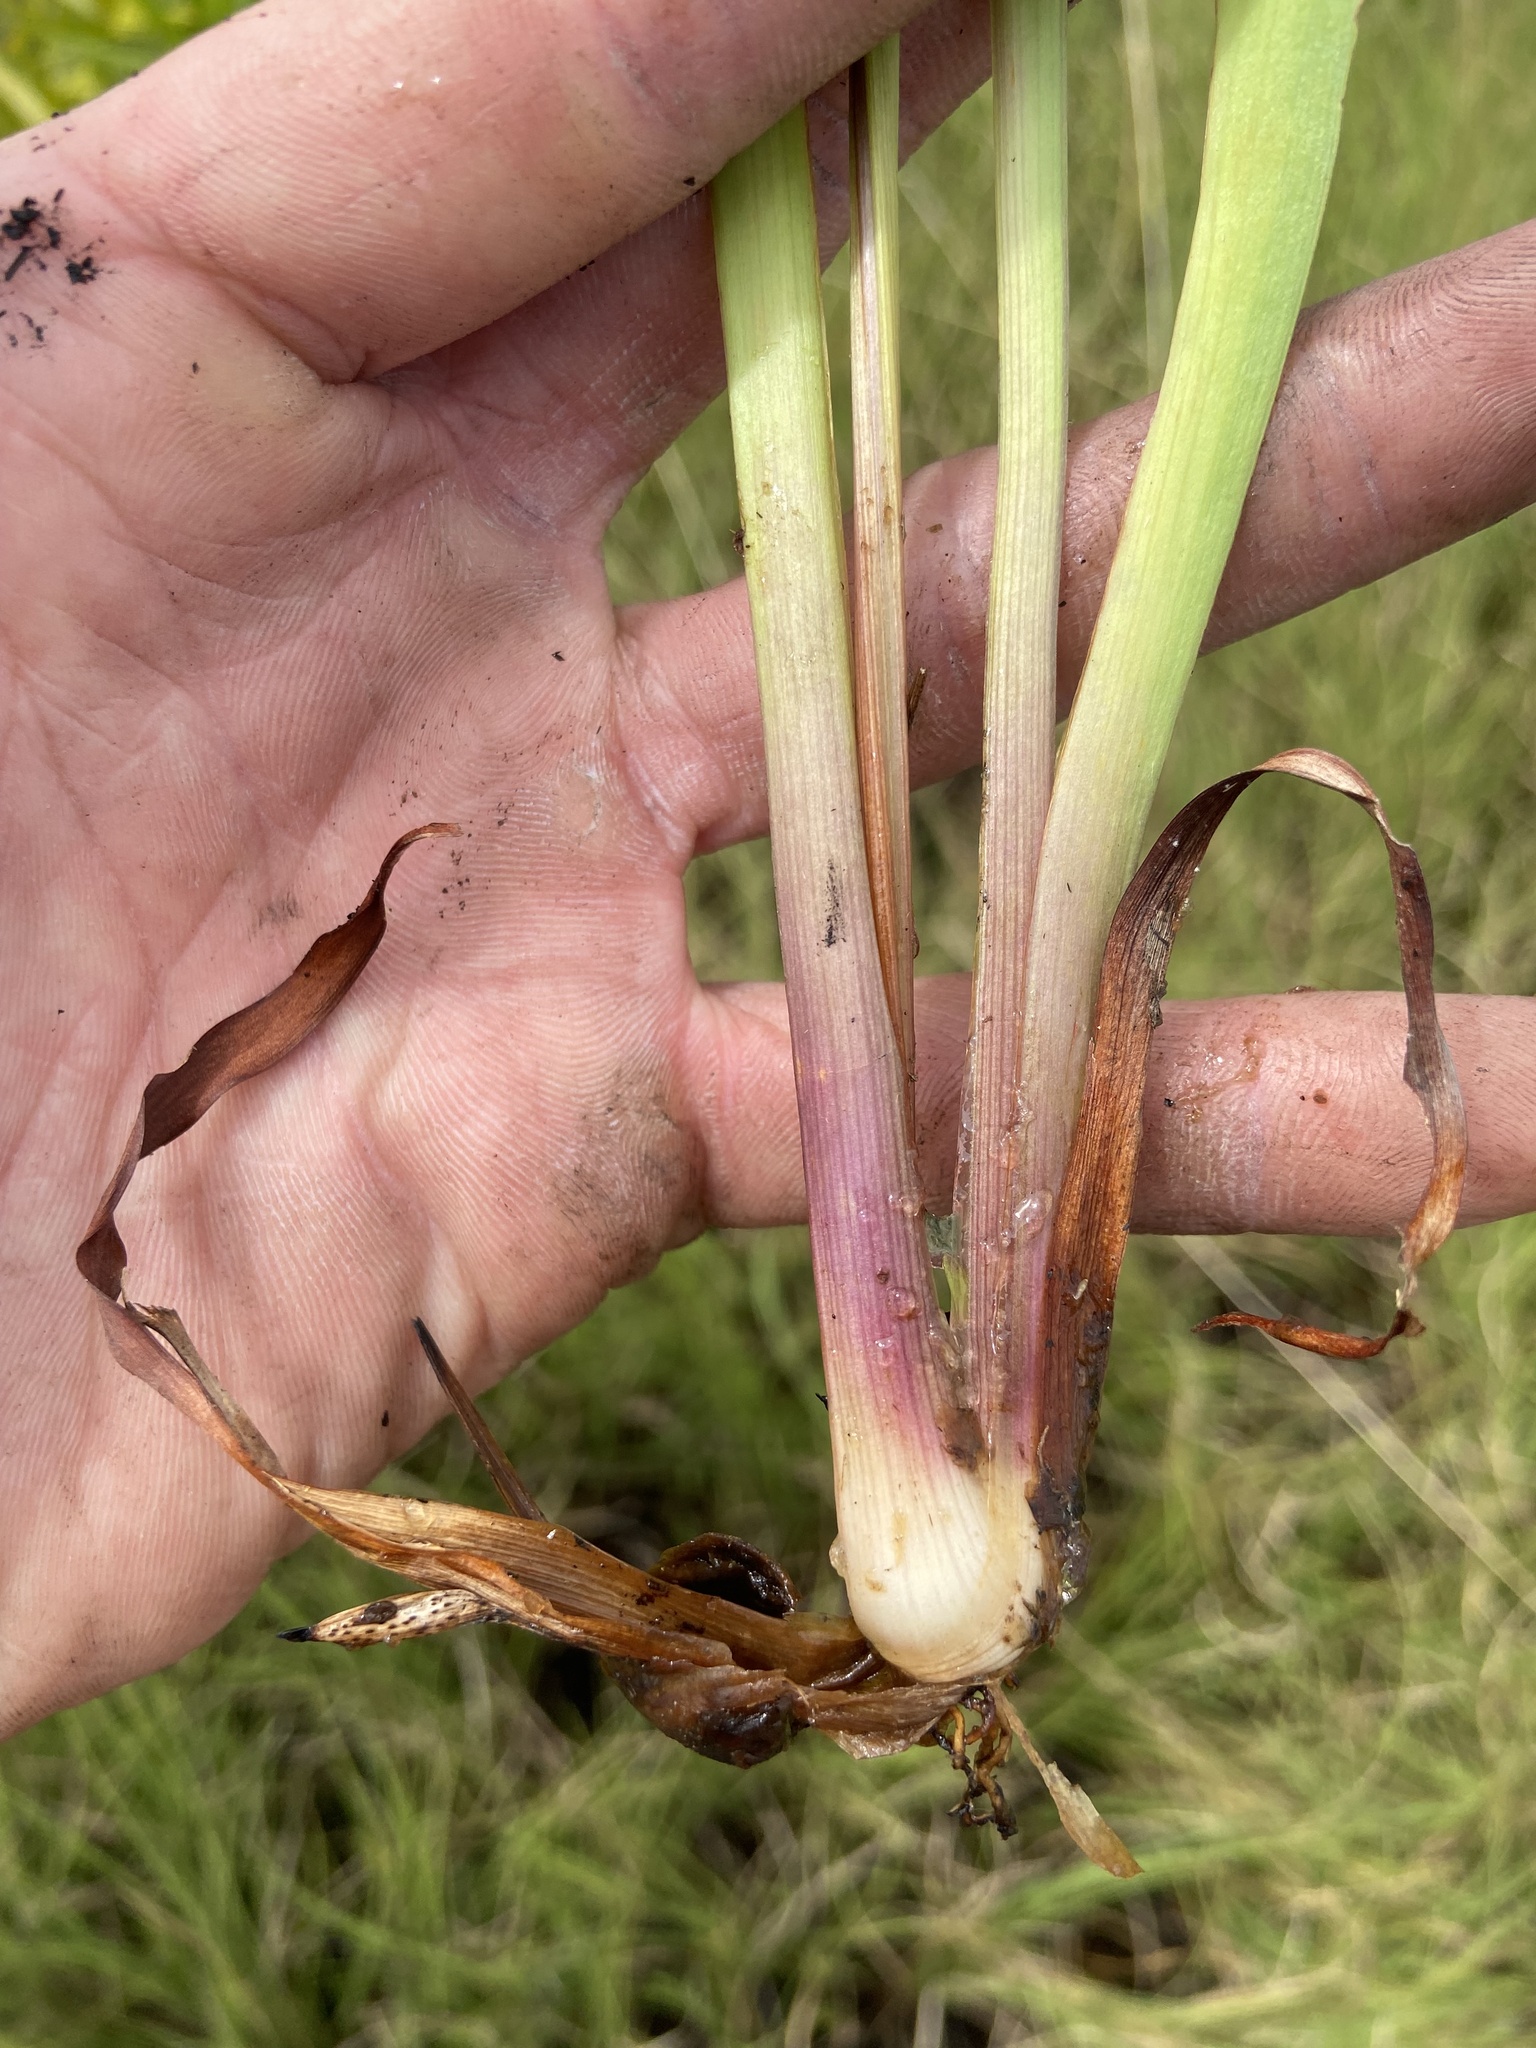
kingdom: Plantae
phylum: Tracheophyta
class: Liliopsida
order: Poales
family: Xyridaceae
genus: Xyris
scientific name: Xyris platylepis
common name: Tall yelloweyed grass
